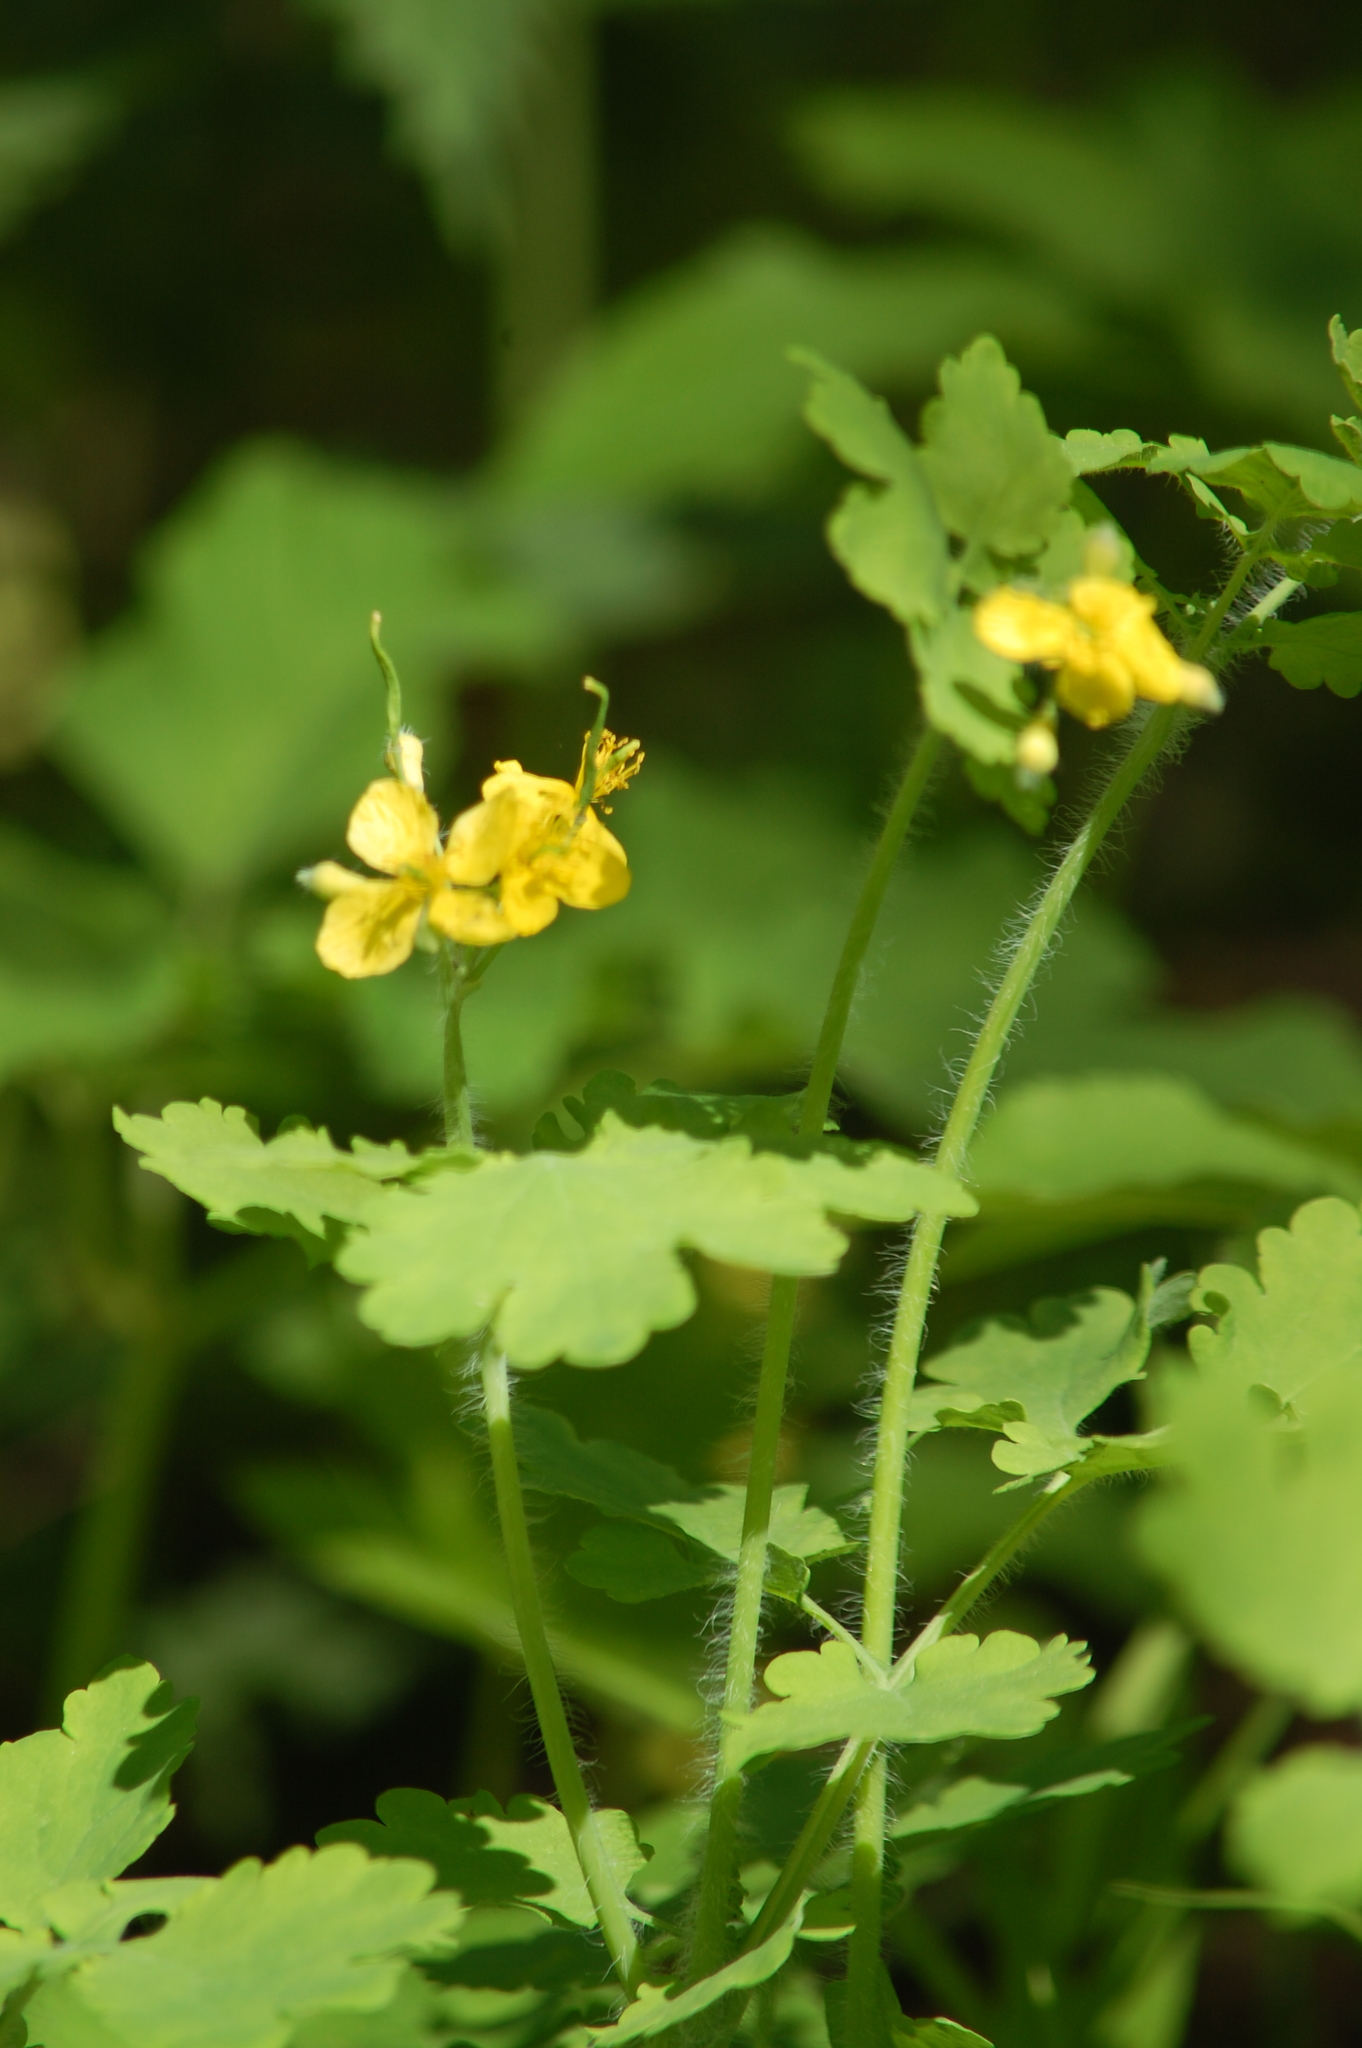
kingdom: Plantae
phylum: Tracheophyta
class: Magnoliopsida
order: Ranunculales
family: Papaveraceae
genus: Chelidonium
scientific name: Chelidonium majus
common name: Greater celandine
